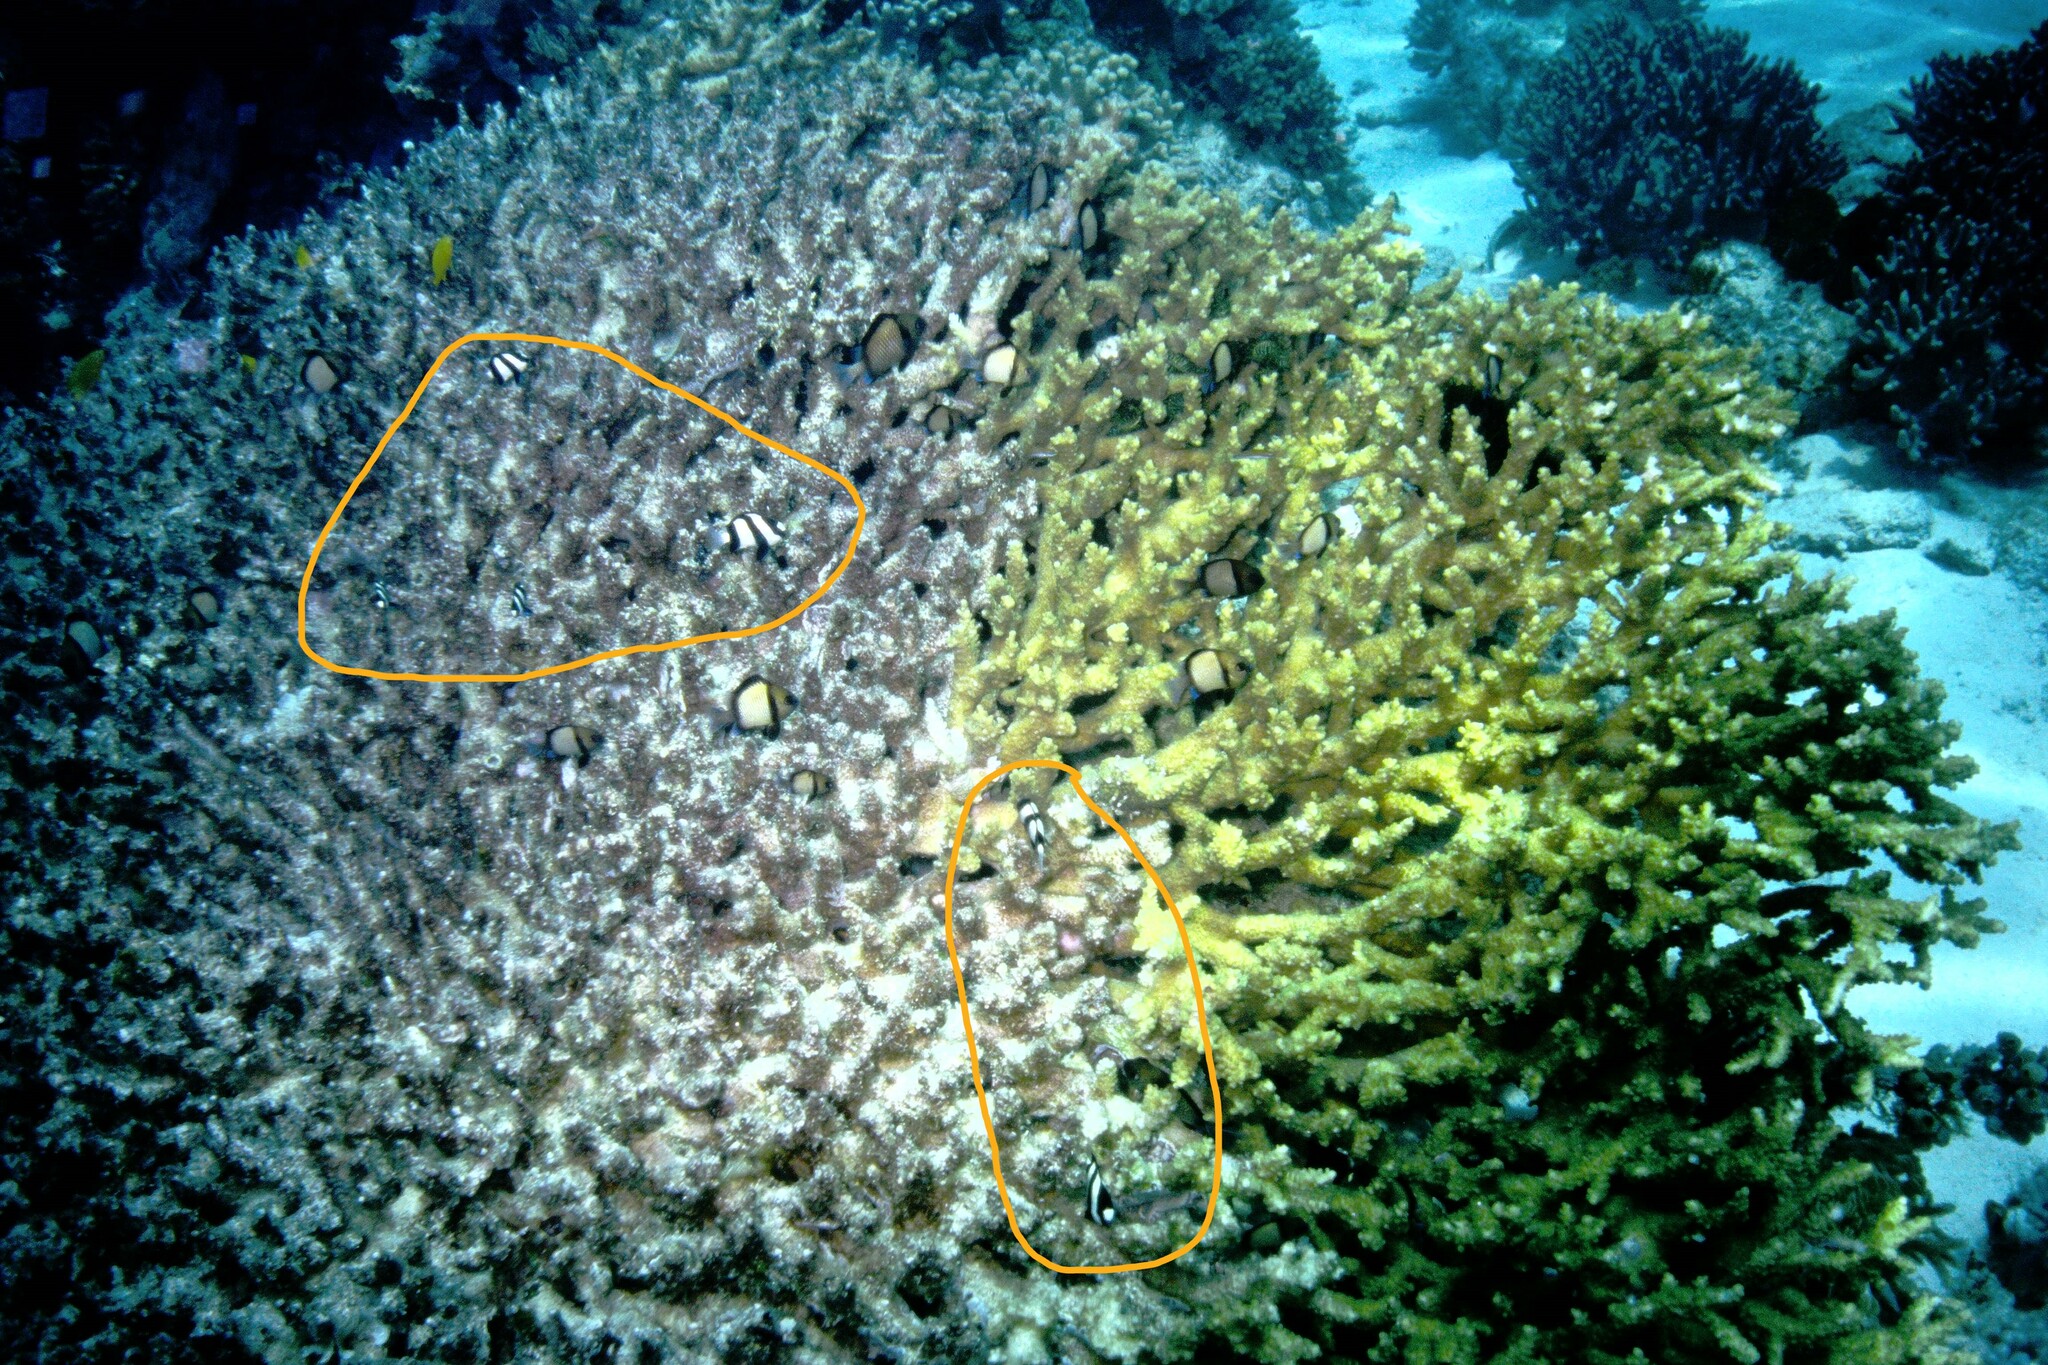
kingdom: Animalia
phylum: Chordata
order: Perciformes
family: Pomacentridae
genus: Dascyllus
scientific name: Dascyllus aruanus
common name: Humbug dascyllus
